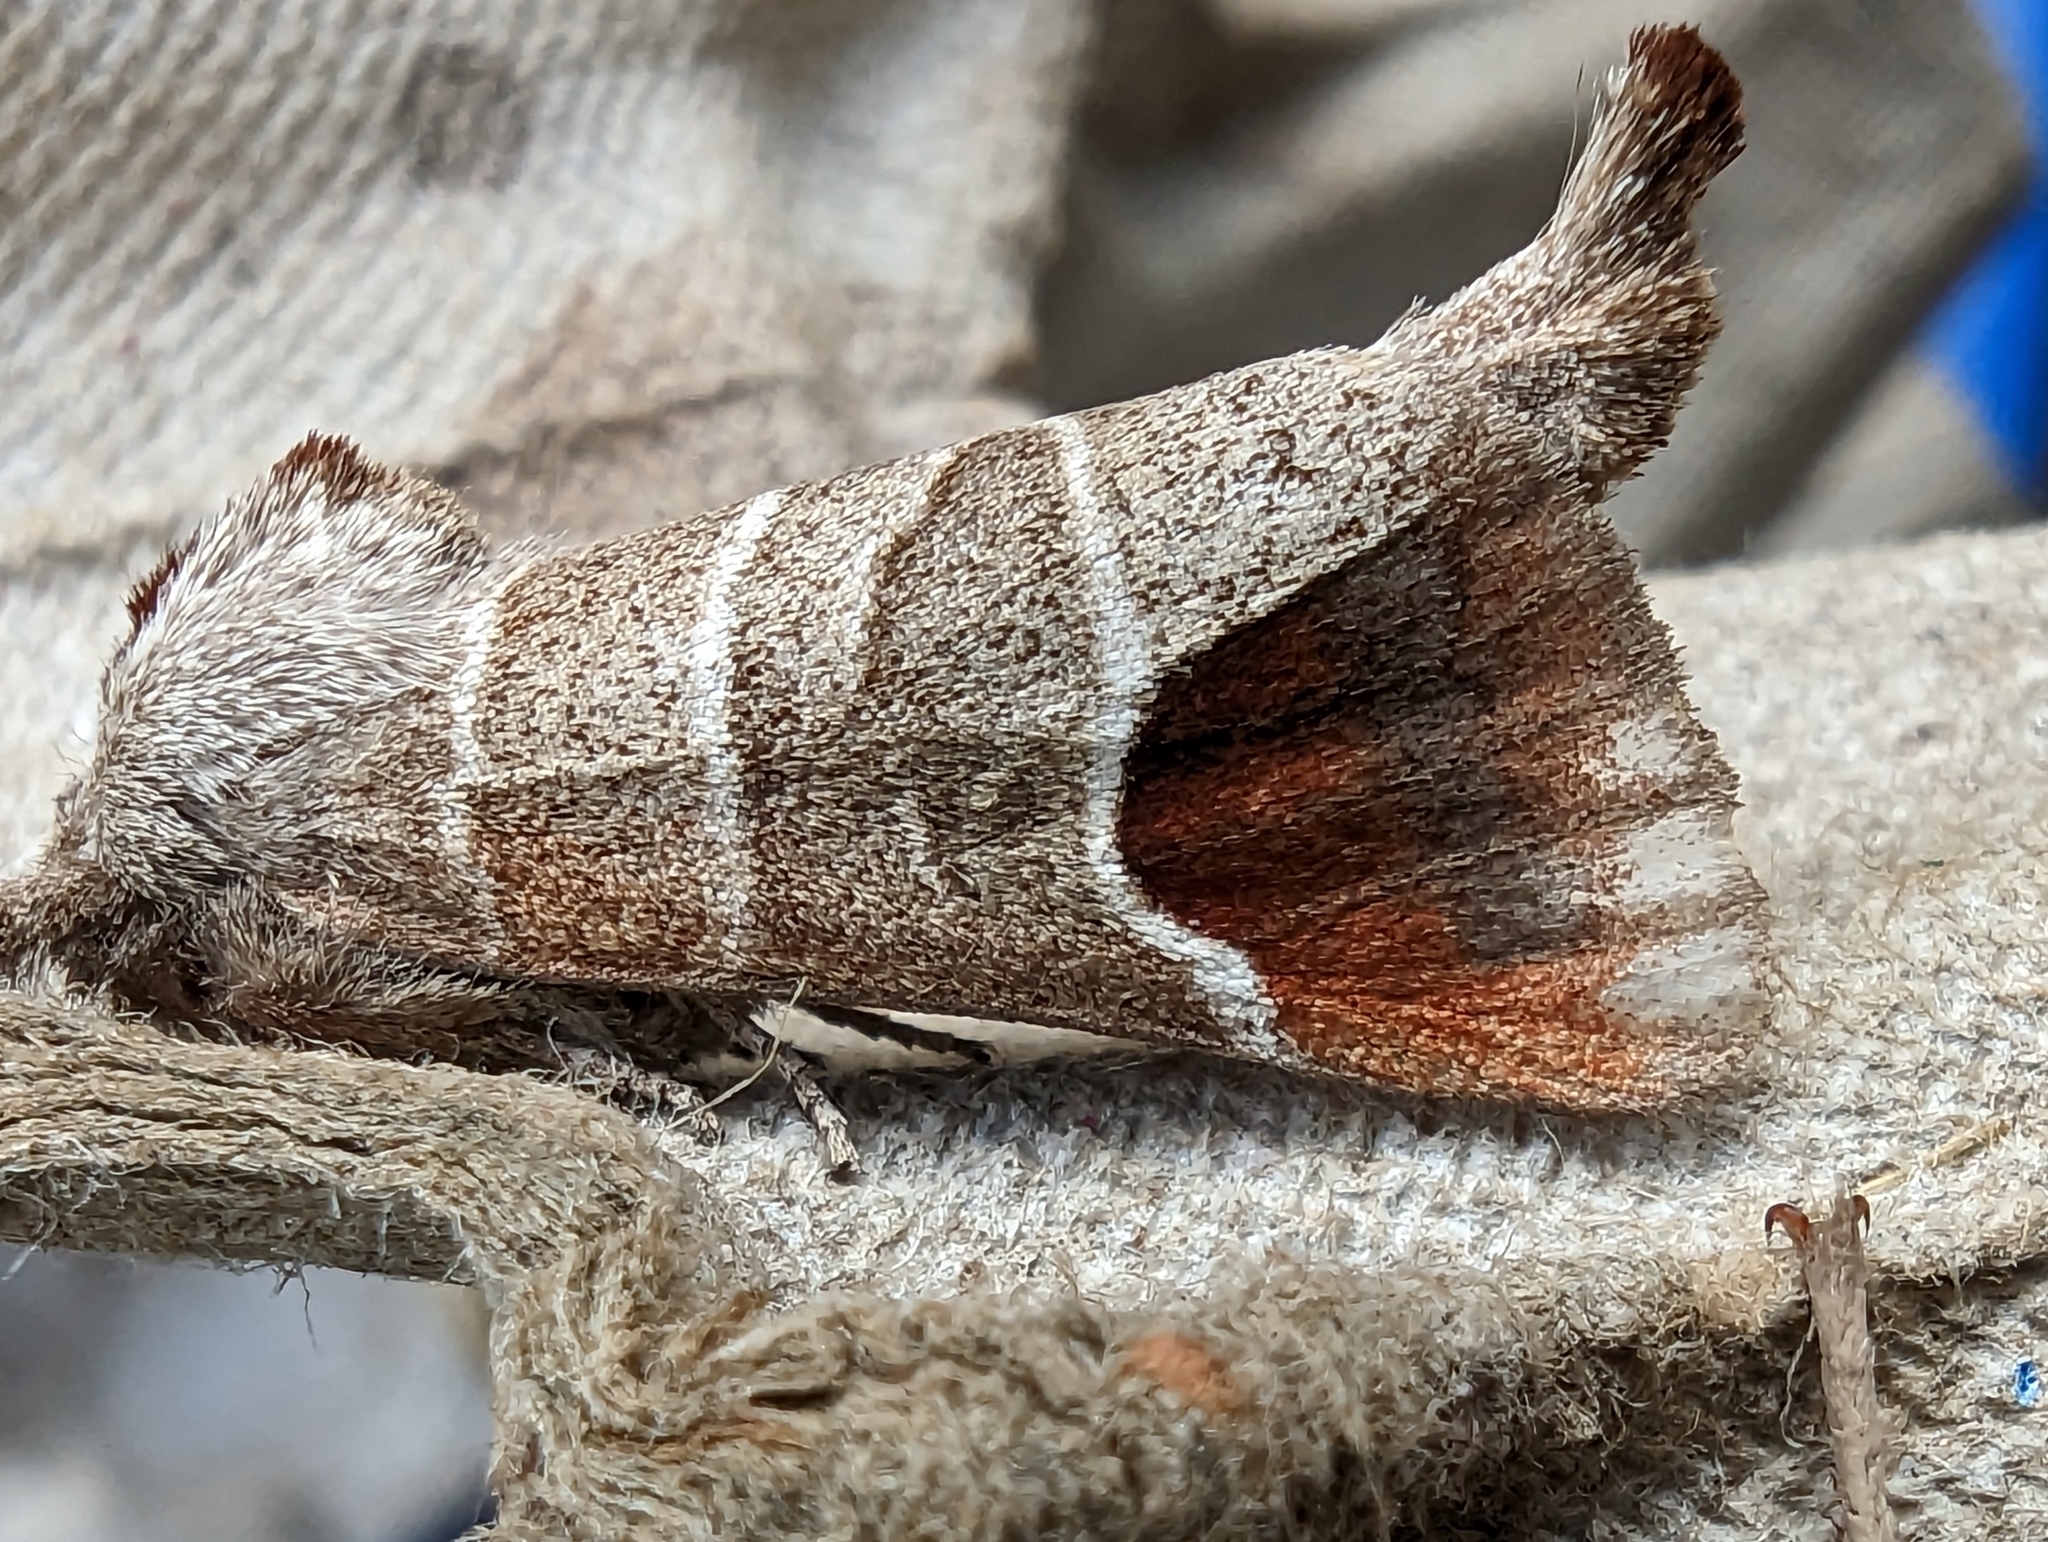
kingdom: Animalia
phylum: Arthropoda
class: Insecta
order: Lepidoptera
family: Notodontidae
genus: Clostera
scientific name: Clostera curtula
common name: Chocolate-tip
